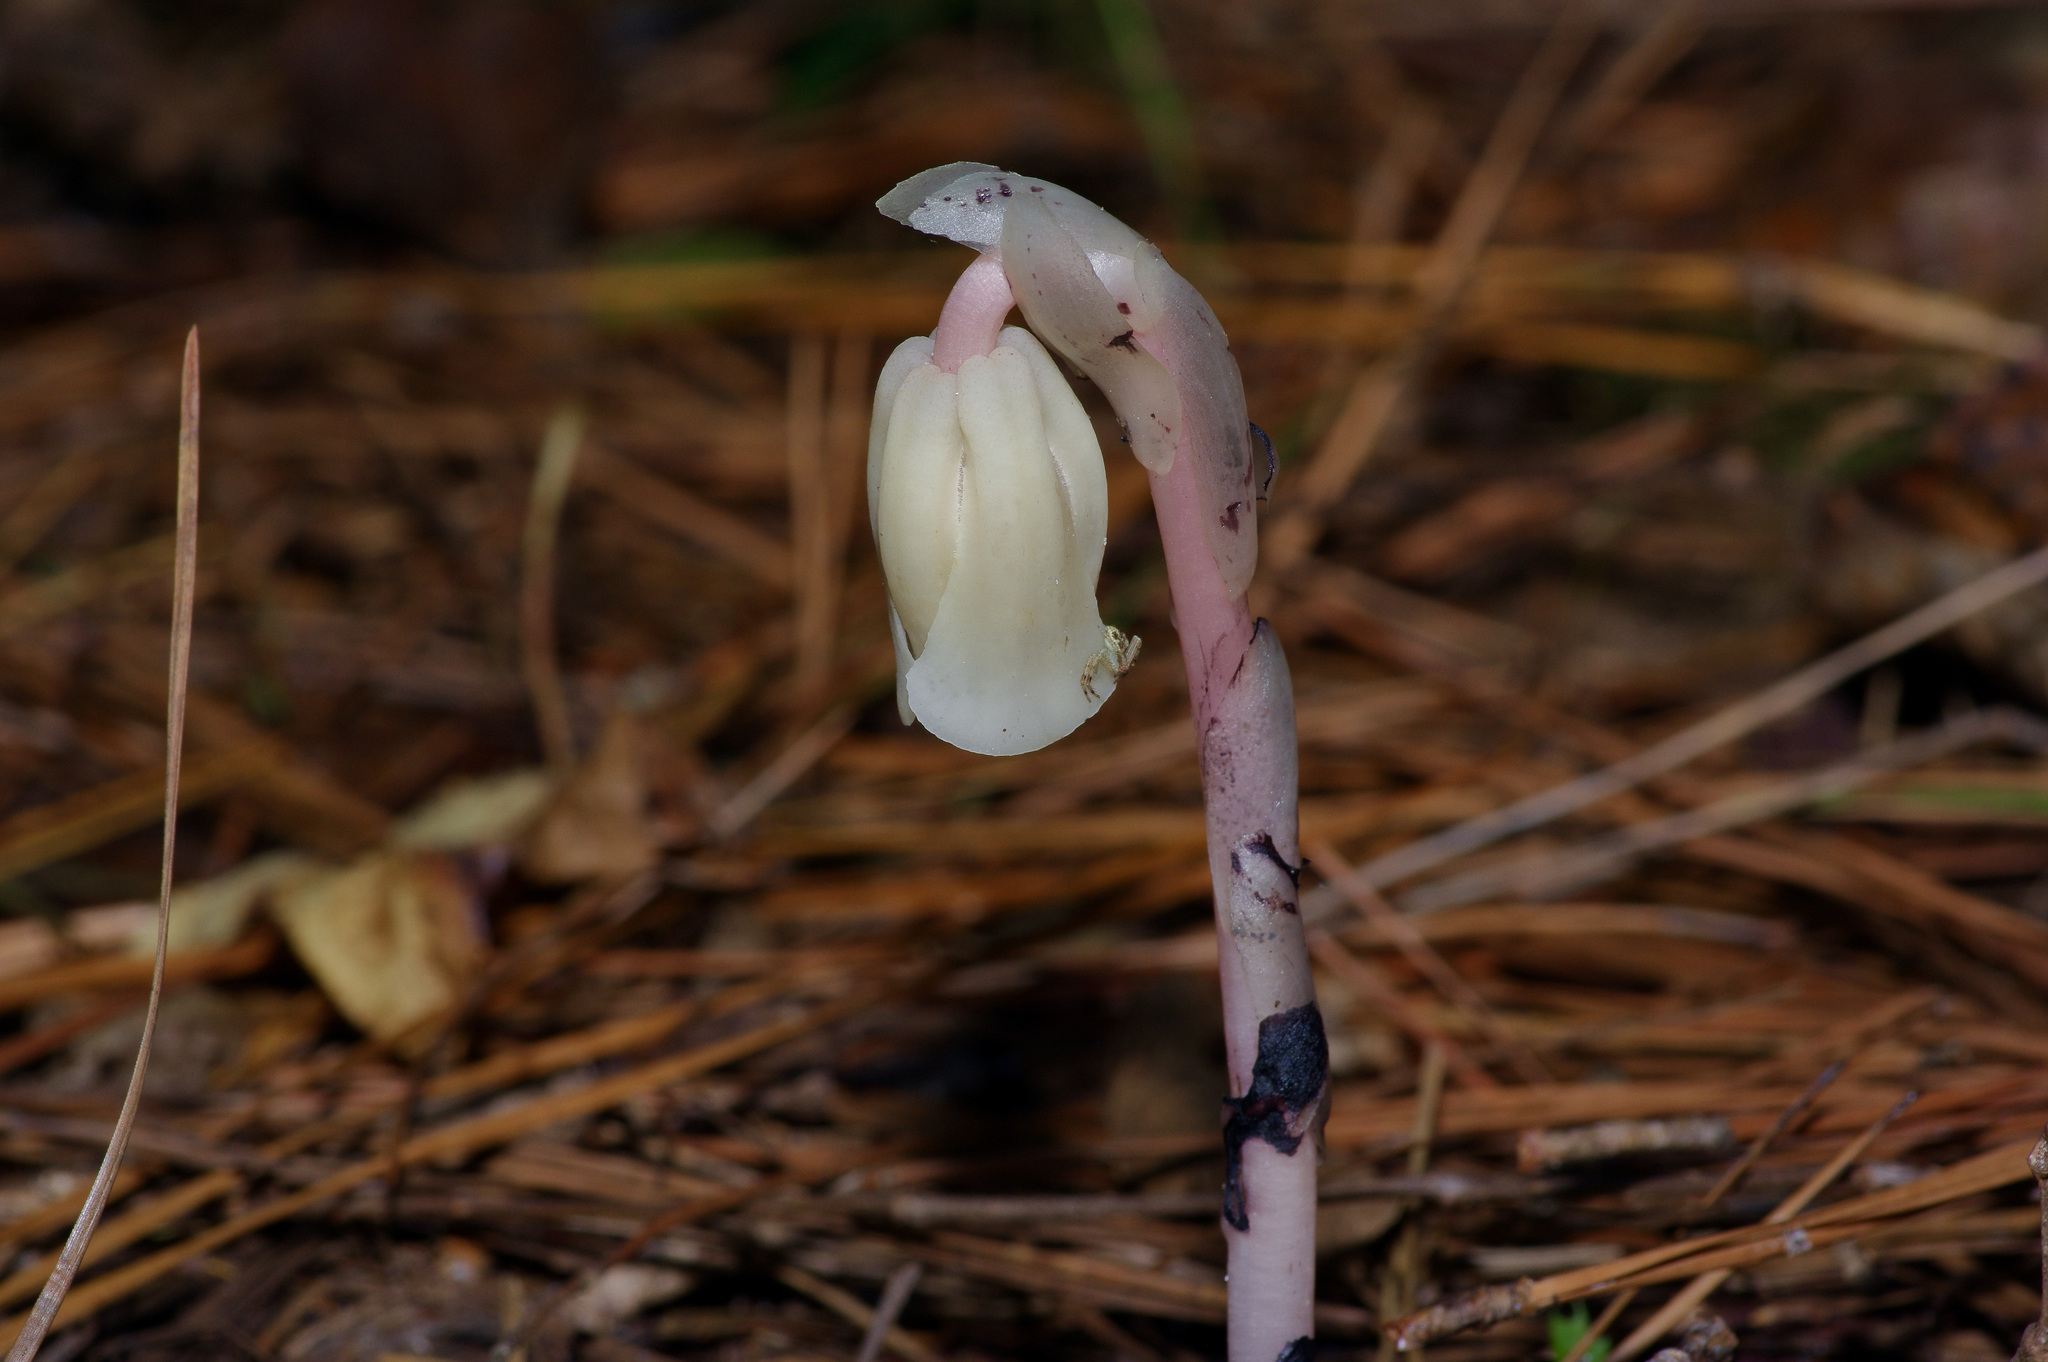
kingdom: Plantae
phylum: Tracheophyta
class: Magnoliopsida
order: Ericales
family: Ericaceae
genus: Monotropa
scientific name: Monotropa uniflora
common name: Convulsion root
